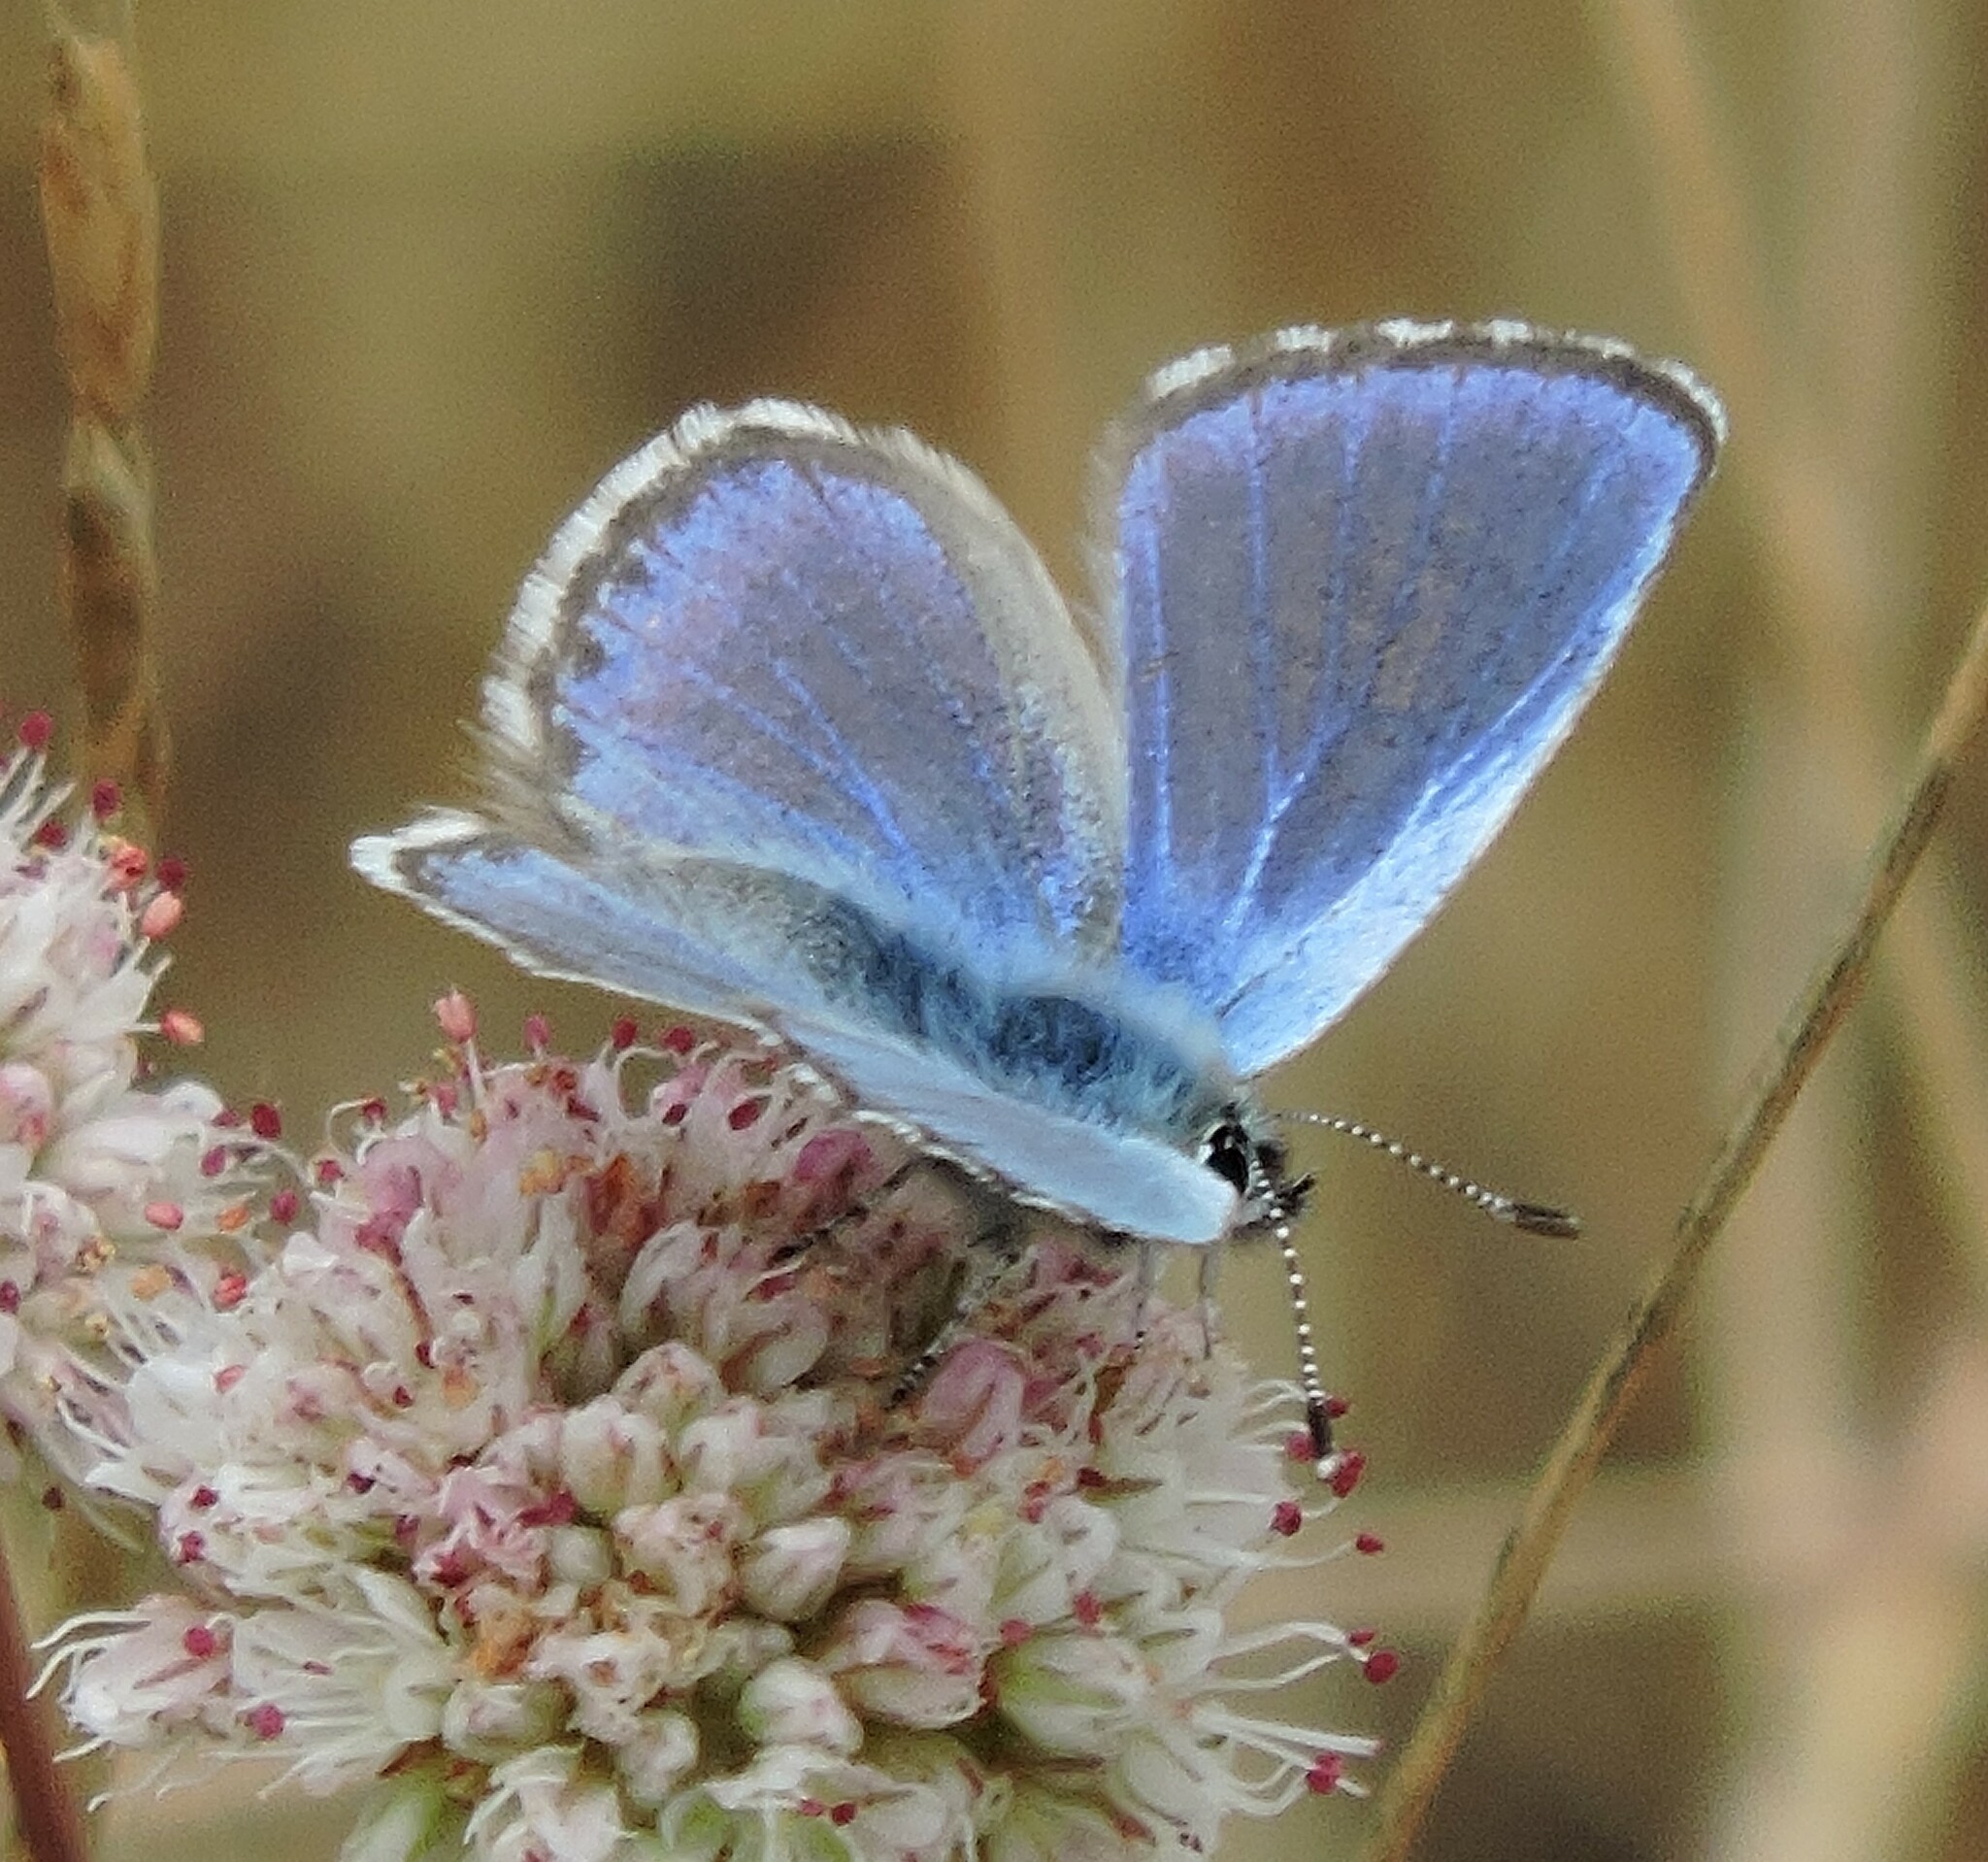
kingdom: Animalia
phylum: Arthropoda
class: Insecta
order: Lepidoptera
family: Lycaenidae
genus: Euphilotes
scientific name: Euphilotes enoptes
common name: Dotted blue
